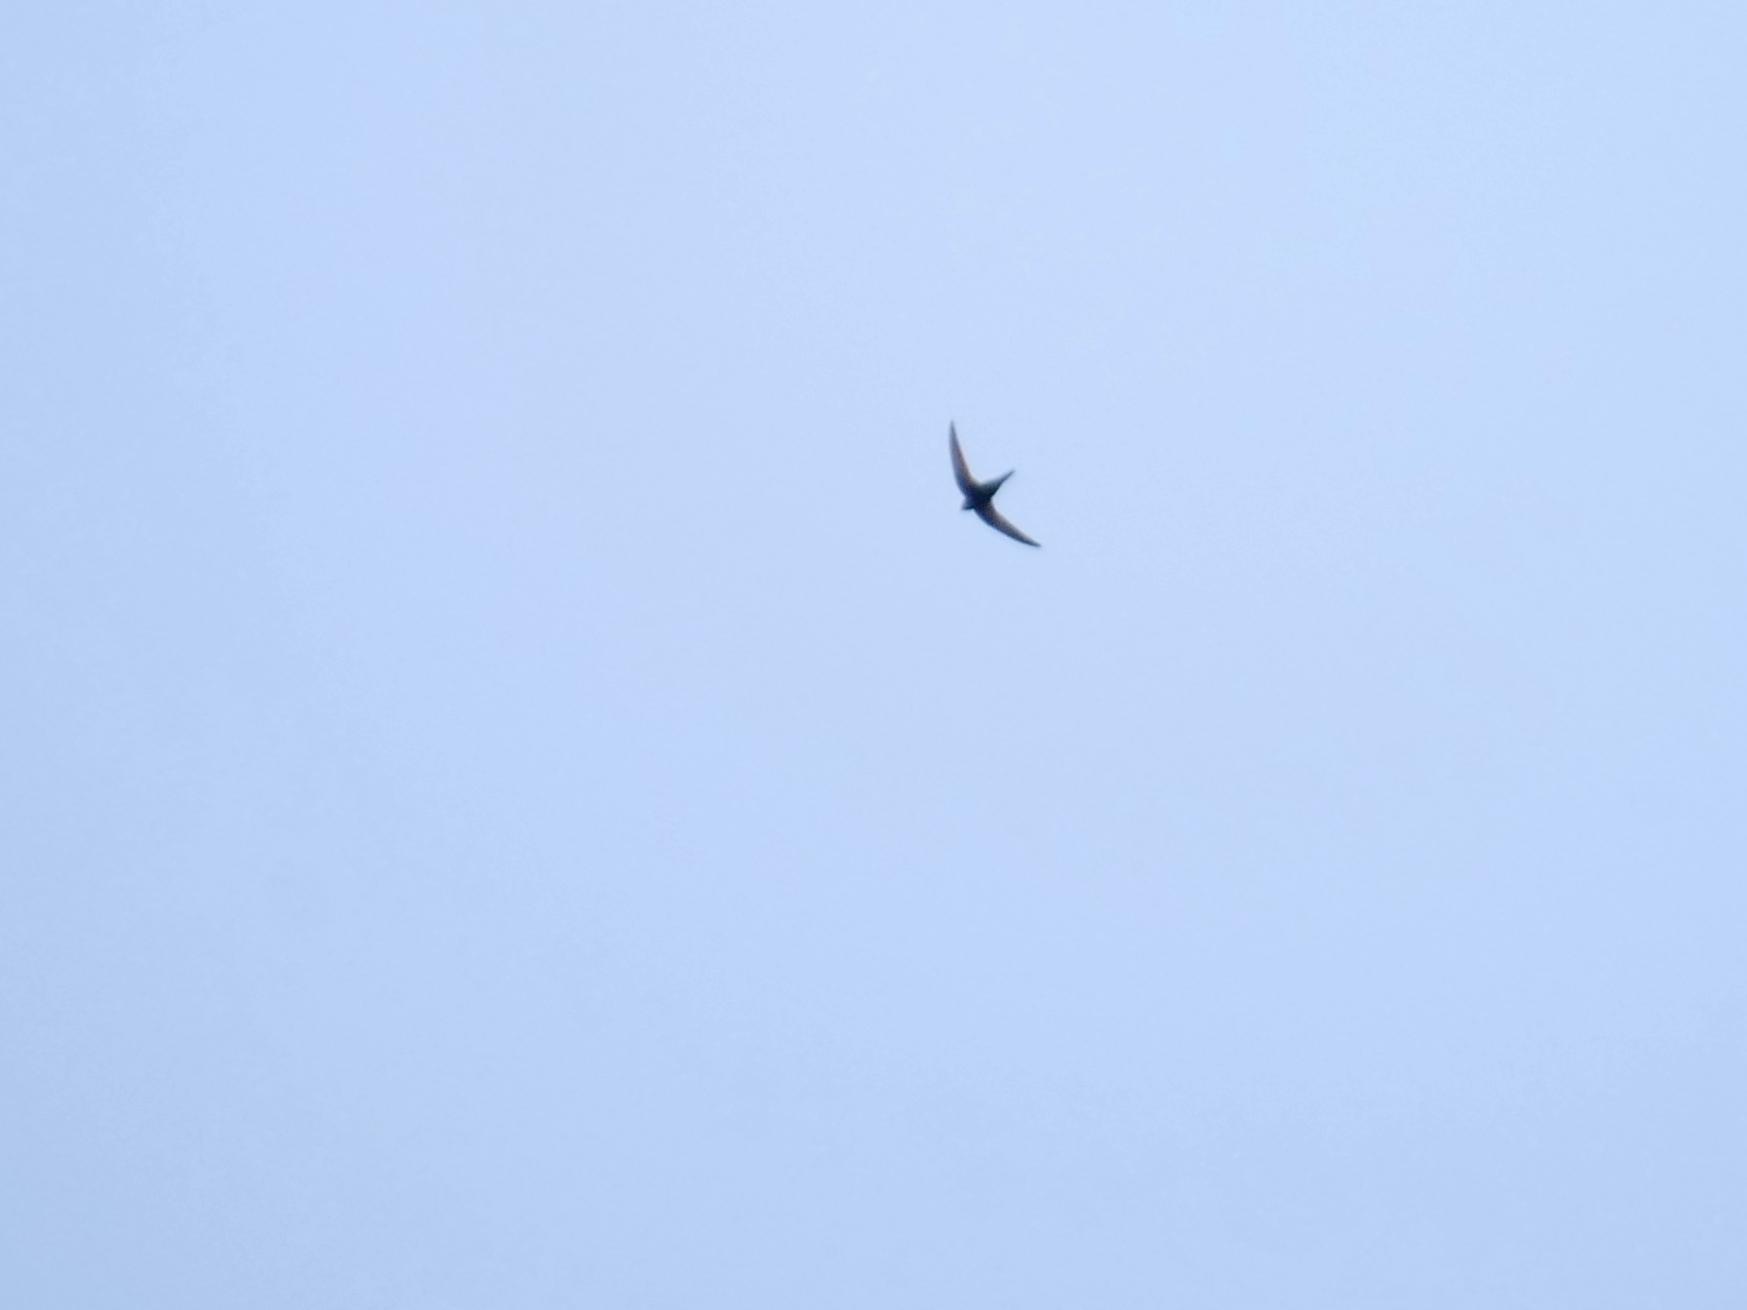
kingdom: Animalia
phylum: Chordata
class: Aves
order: Apodiformes
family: Apodidae
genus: Apus
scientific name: Apus apus
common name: Common swift
